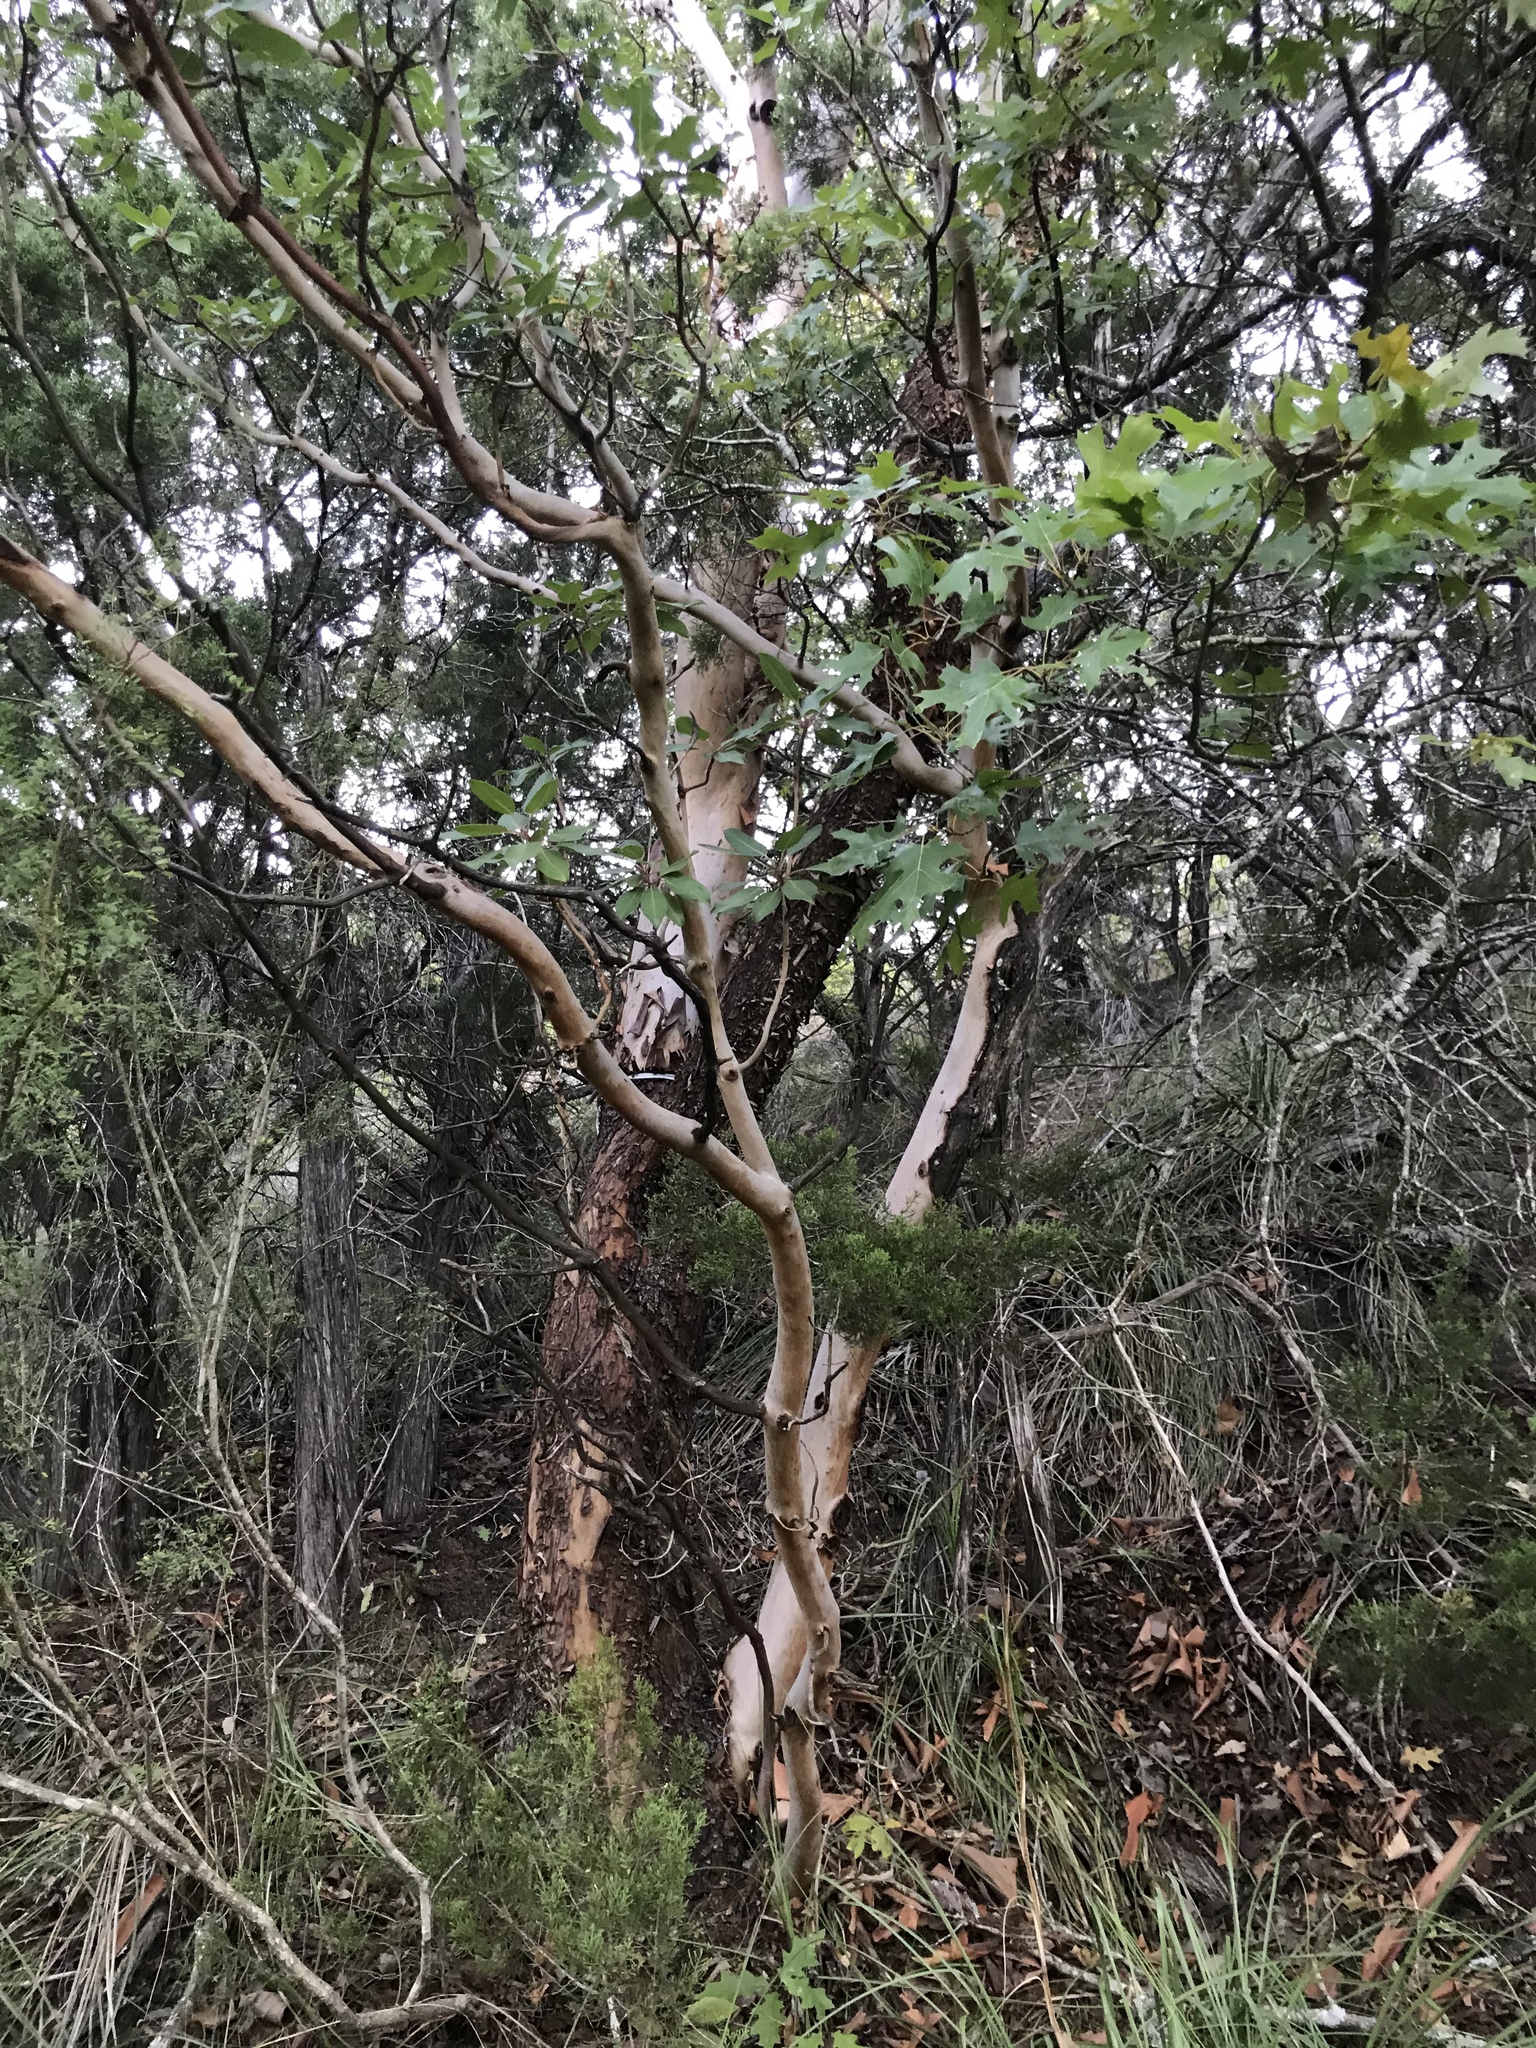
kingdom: Plantae
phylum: Tracheophyta
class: Magnoliopsida
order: Ericales
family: Ericaceae
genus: Arbutus
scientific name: Arbutus xalapensis
